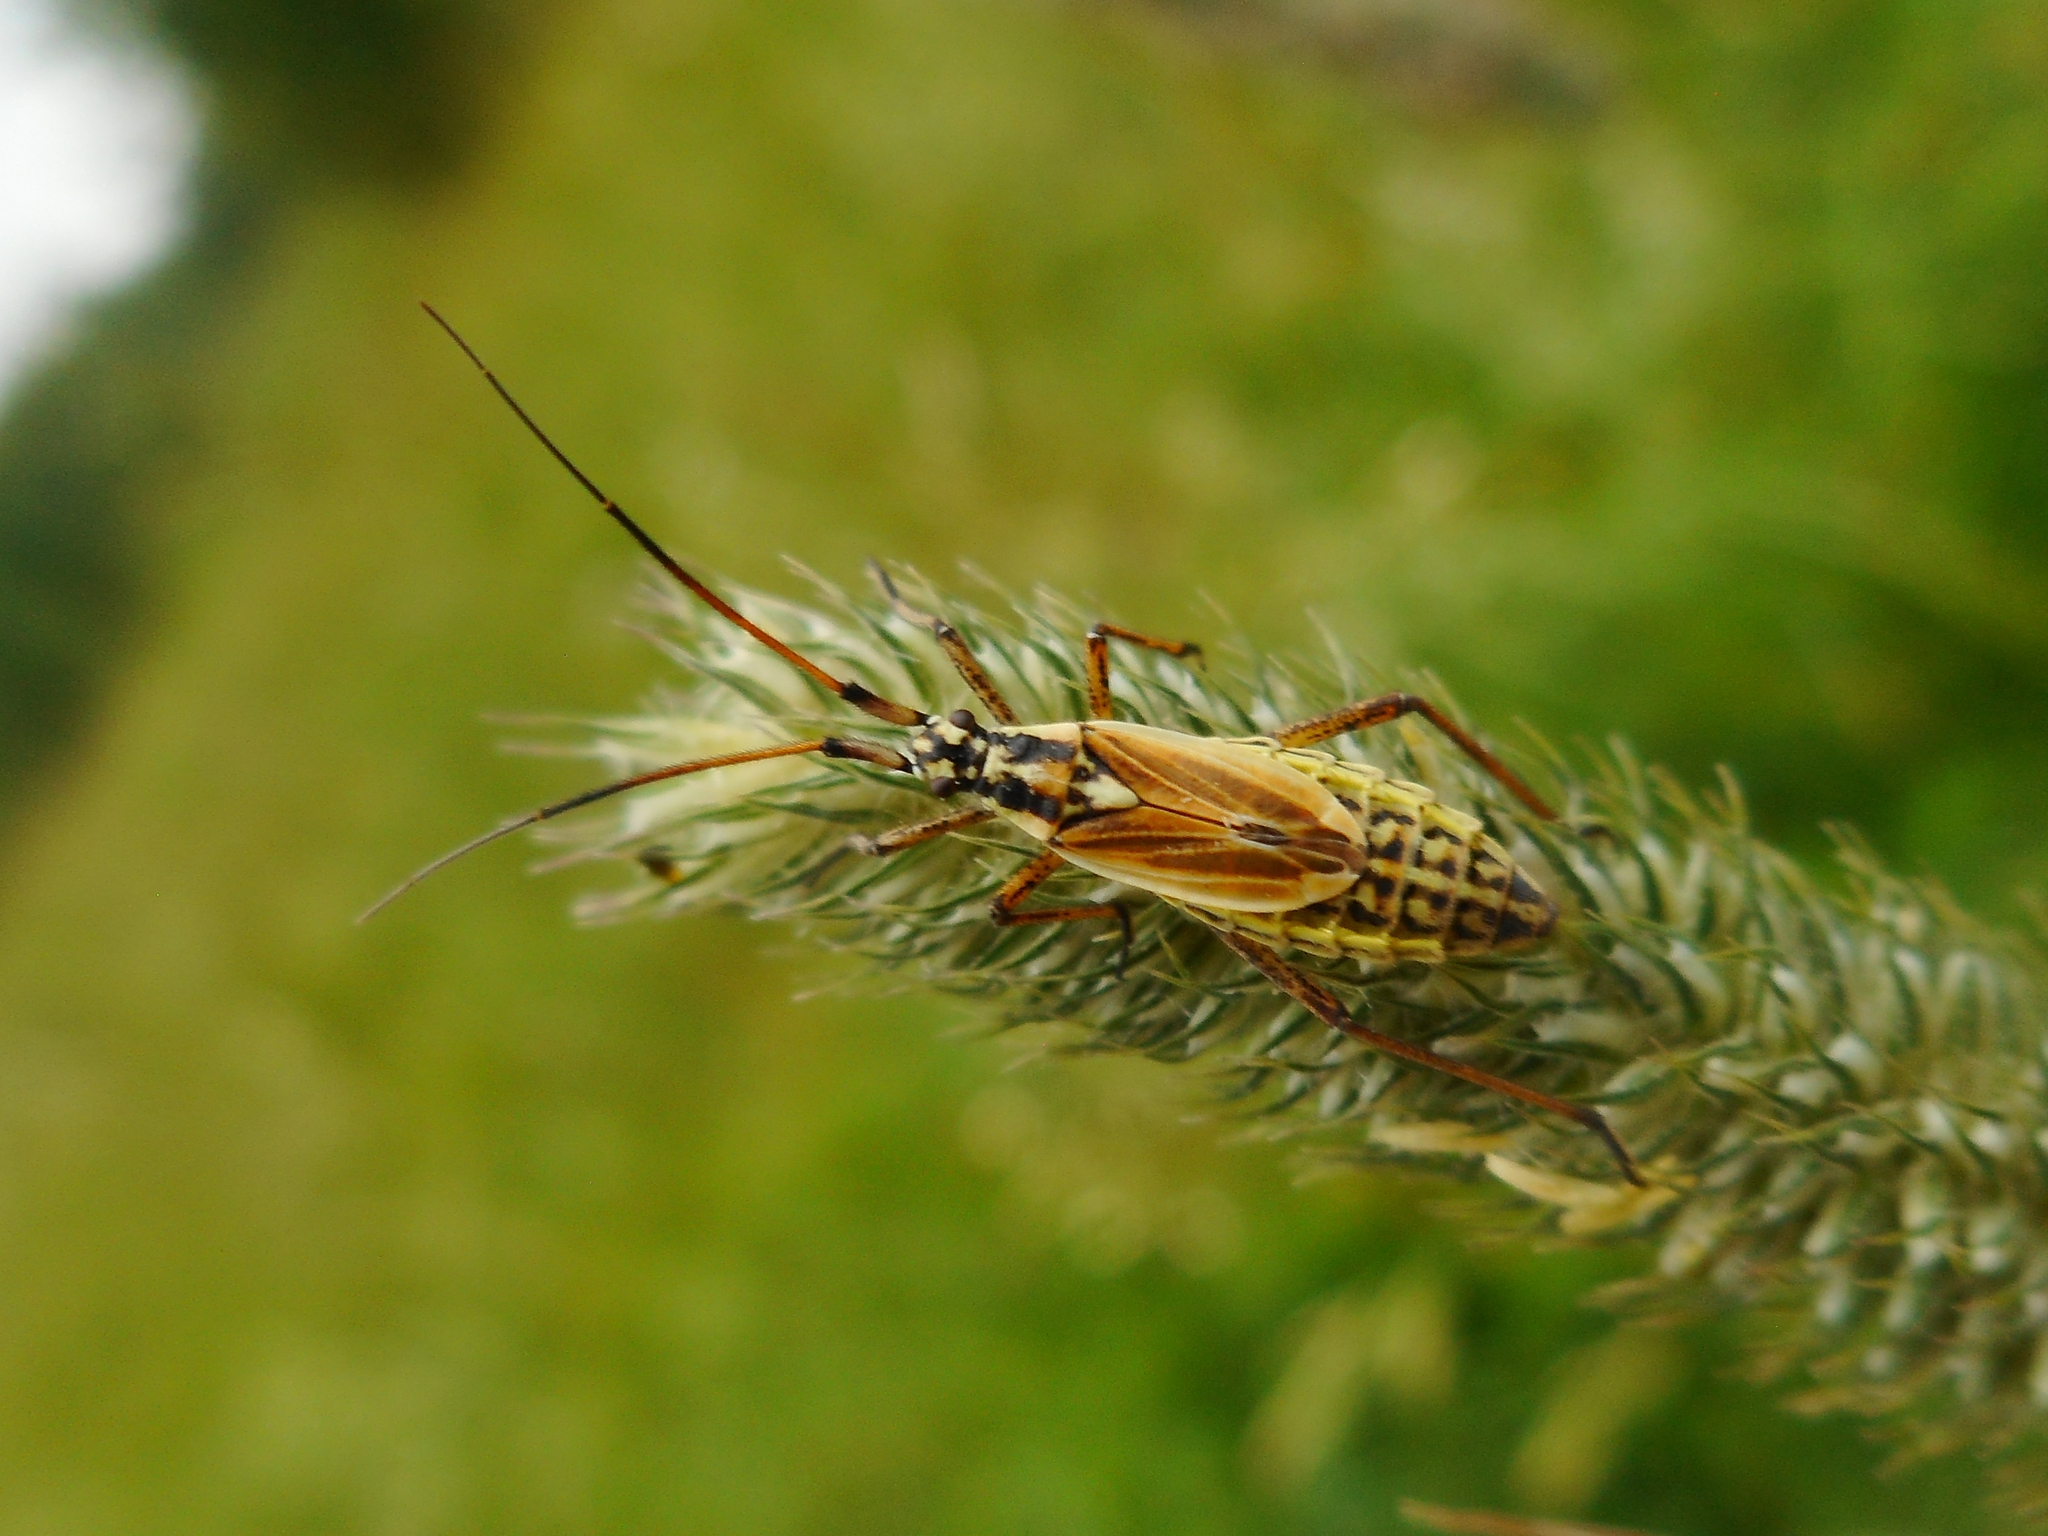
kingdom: Animalia
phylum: Arthropoda
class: Insecta
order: Hemiptera
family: Miridae
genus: Leptopterna
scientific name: Leptopterna dolabrata
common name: Meadow plant bug
